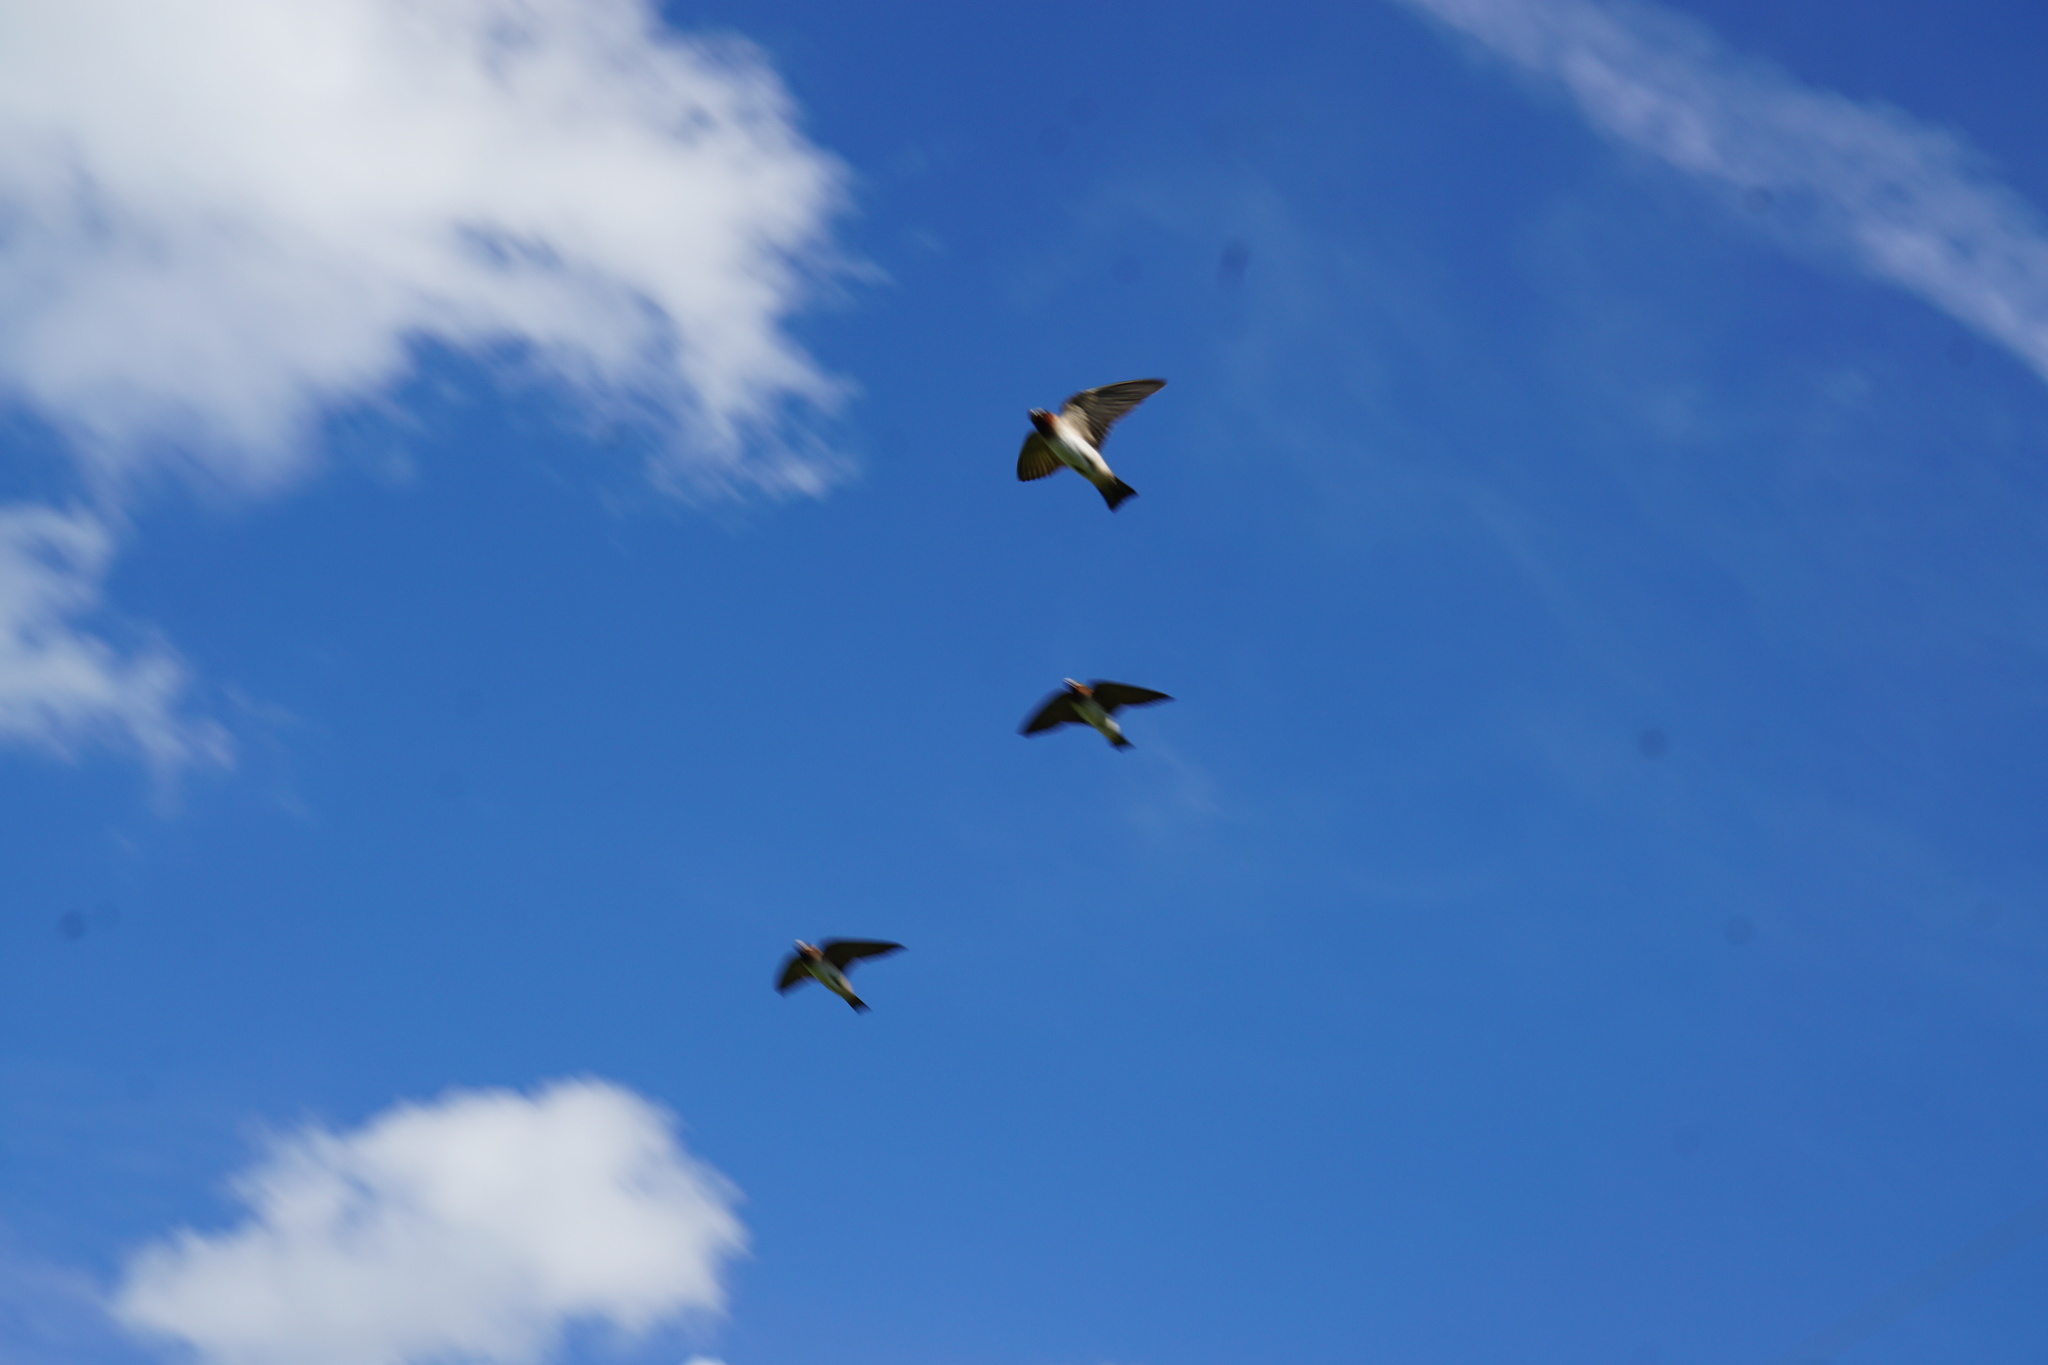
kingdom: Animalia
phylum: Chordata
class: Aves
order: Passeriformes
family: Hirundinidae
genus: Petrochelidon
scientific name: Petrochelidon pyrrhonota
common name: American cliff swallow
